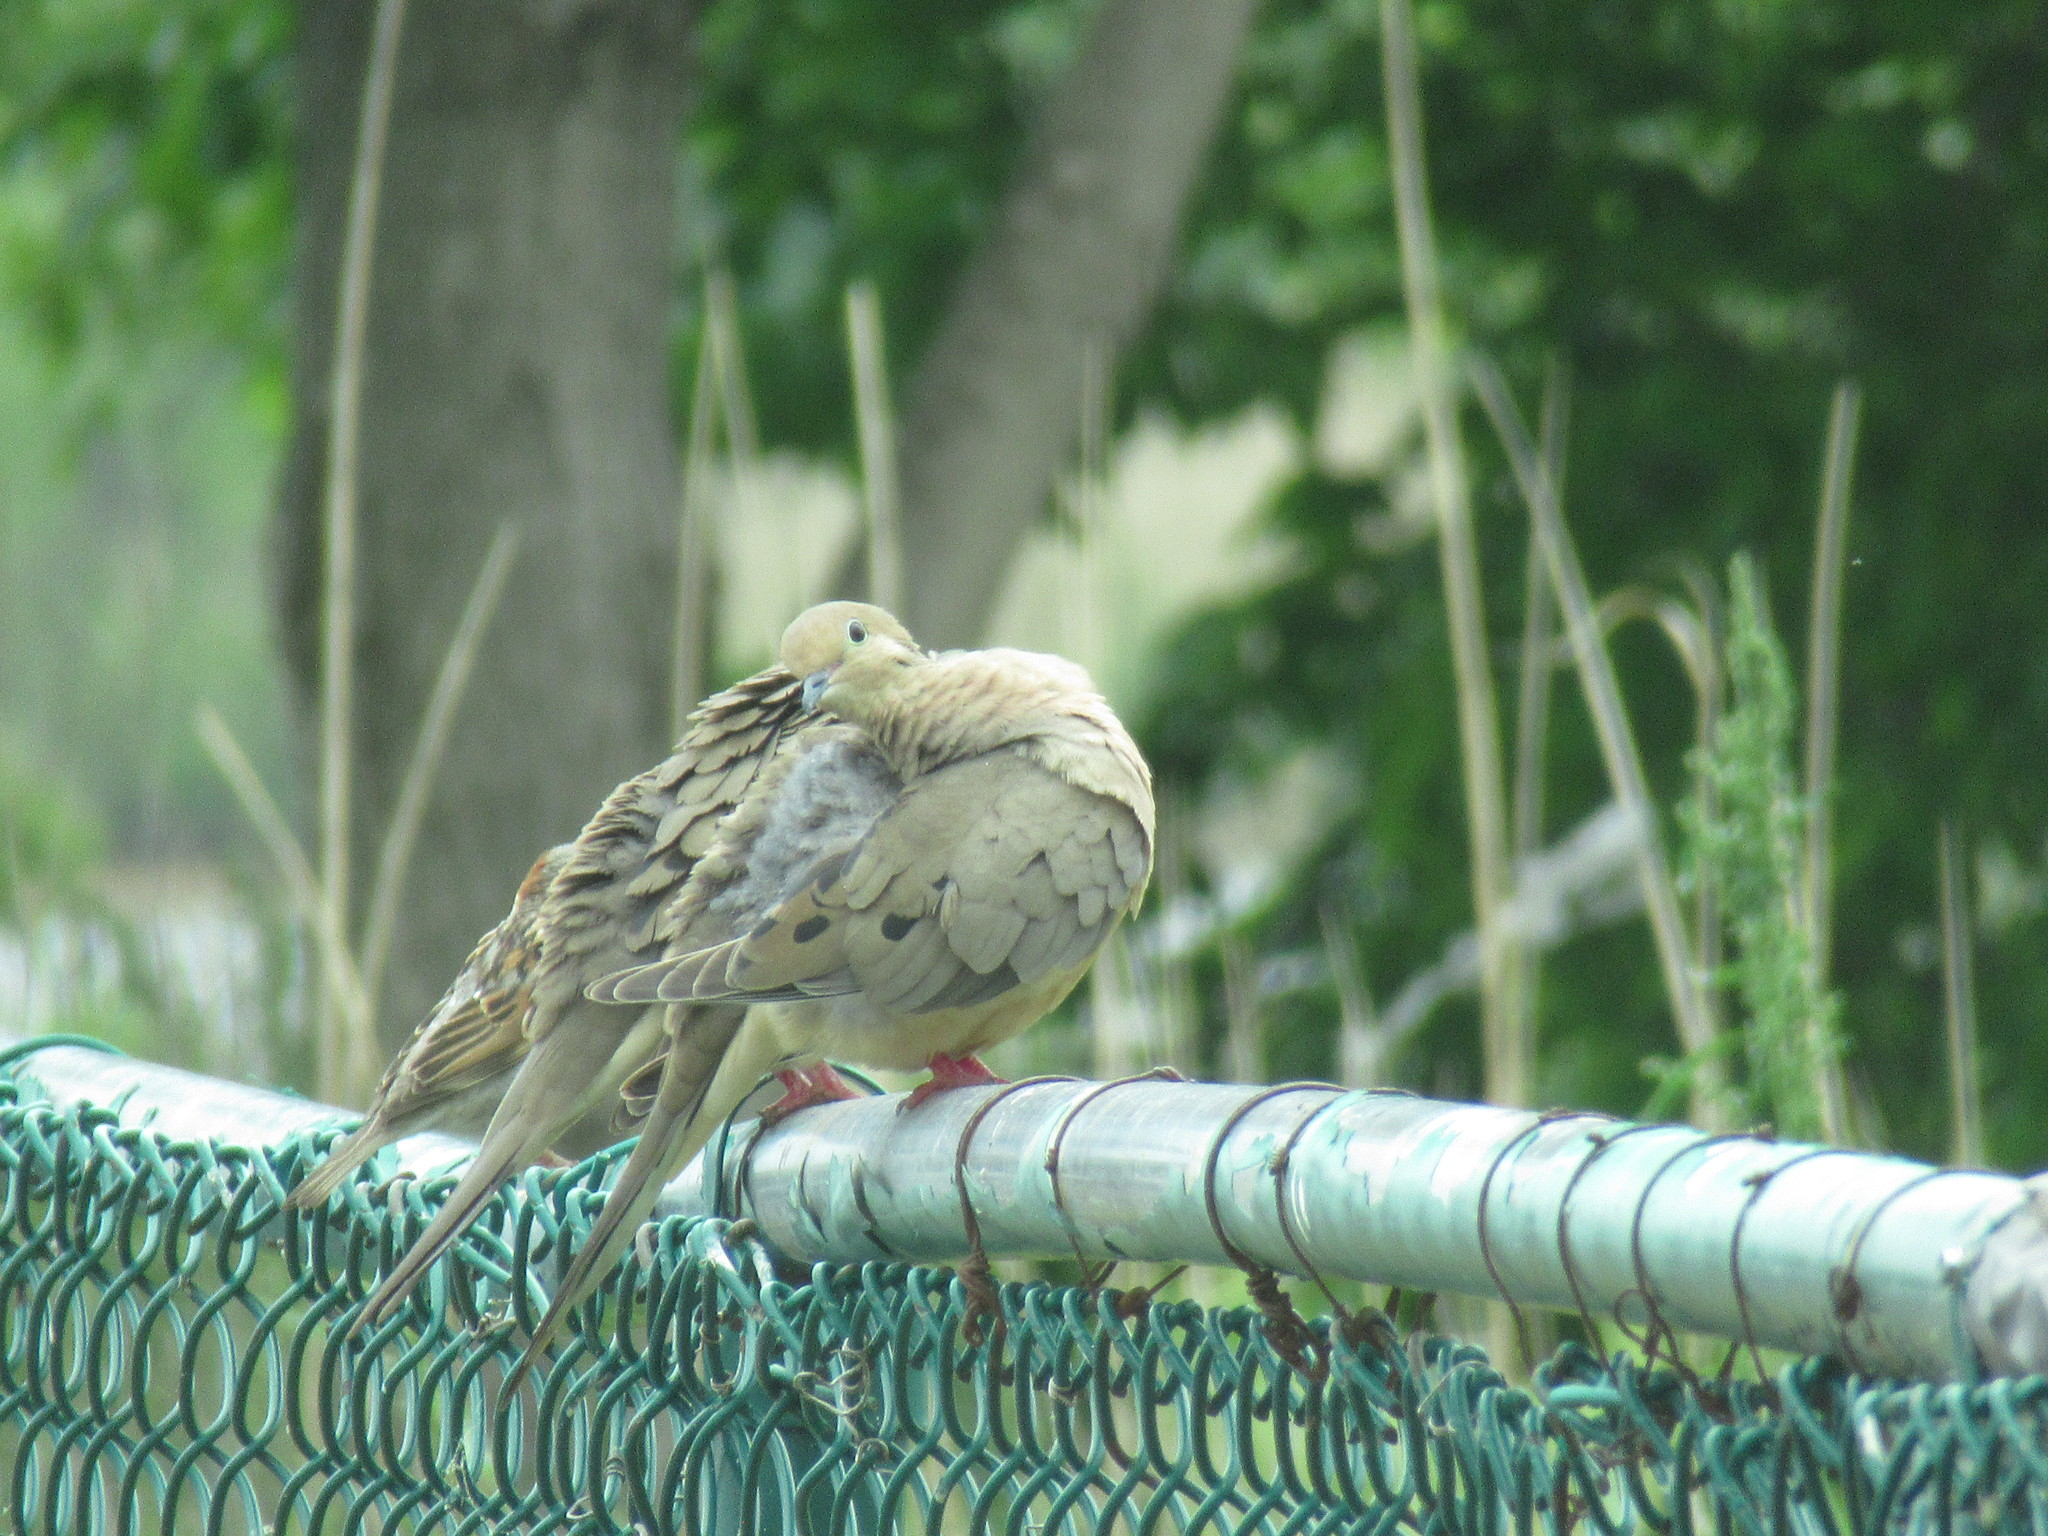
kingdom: Animalia
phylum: Chordata
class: Aves
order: Columbiformes
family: Columbidae
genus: Zenaida
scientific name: Zenaida macroura
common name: Mourning dove
